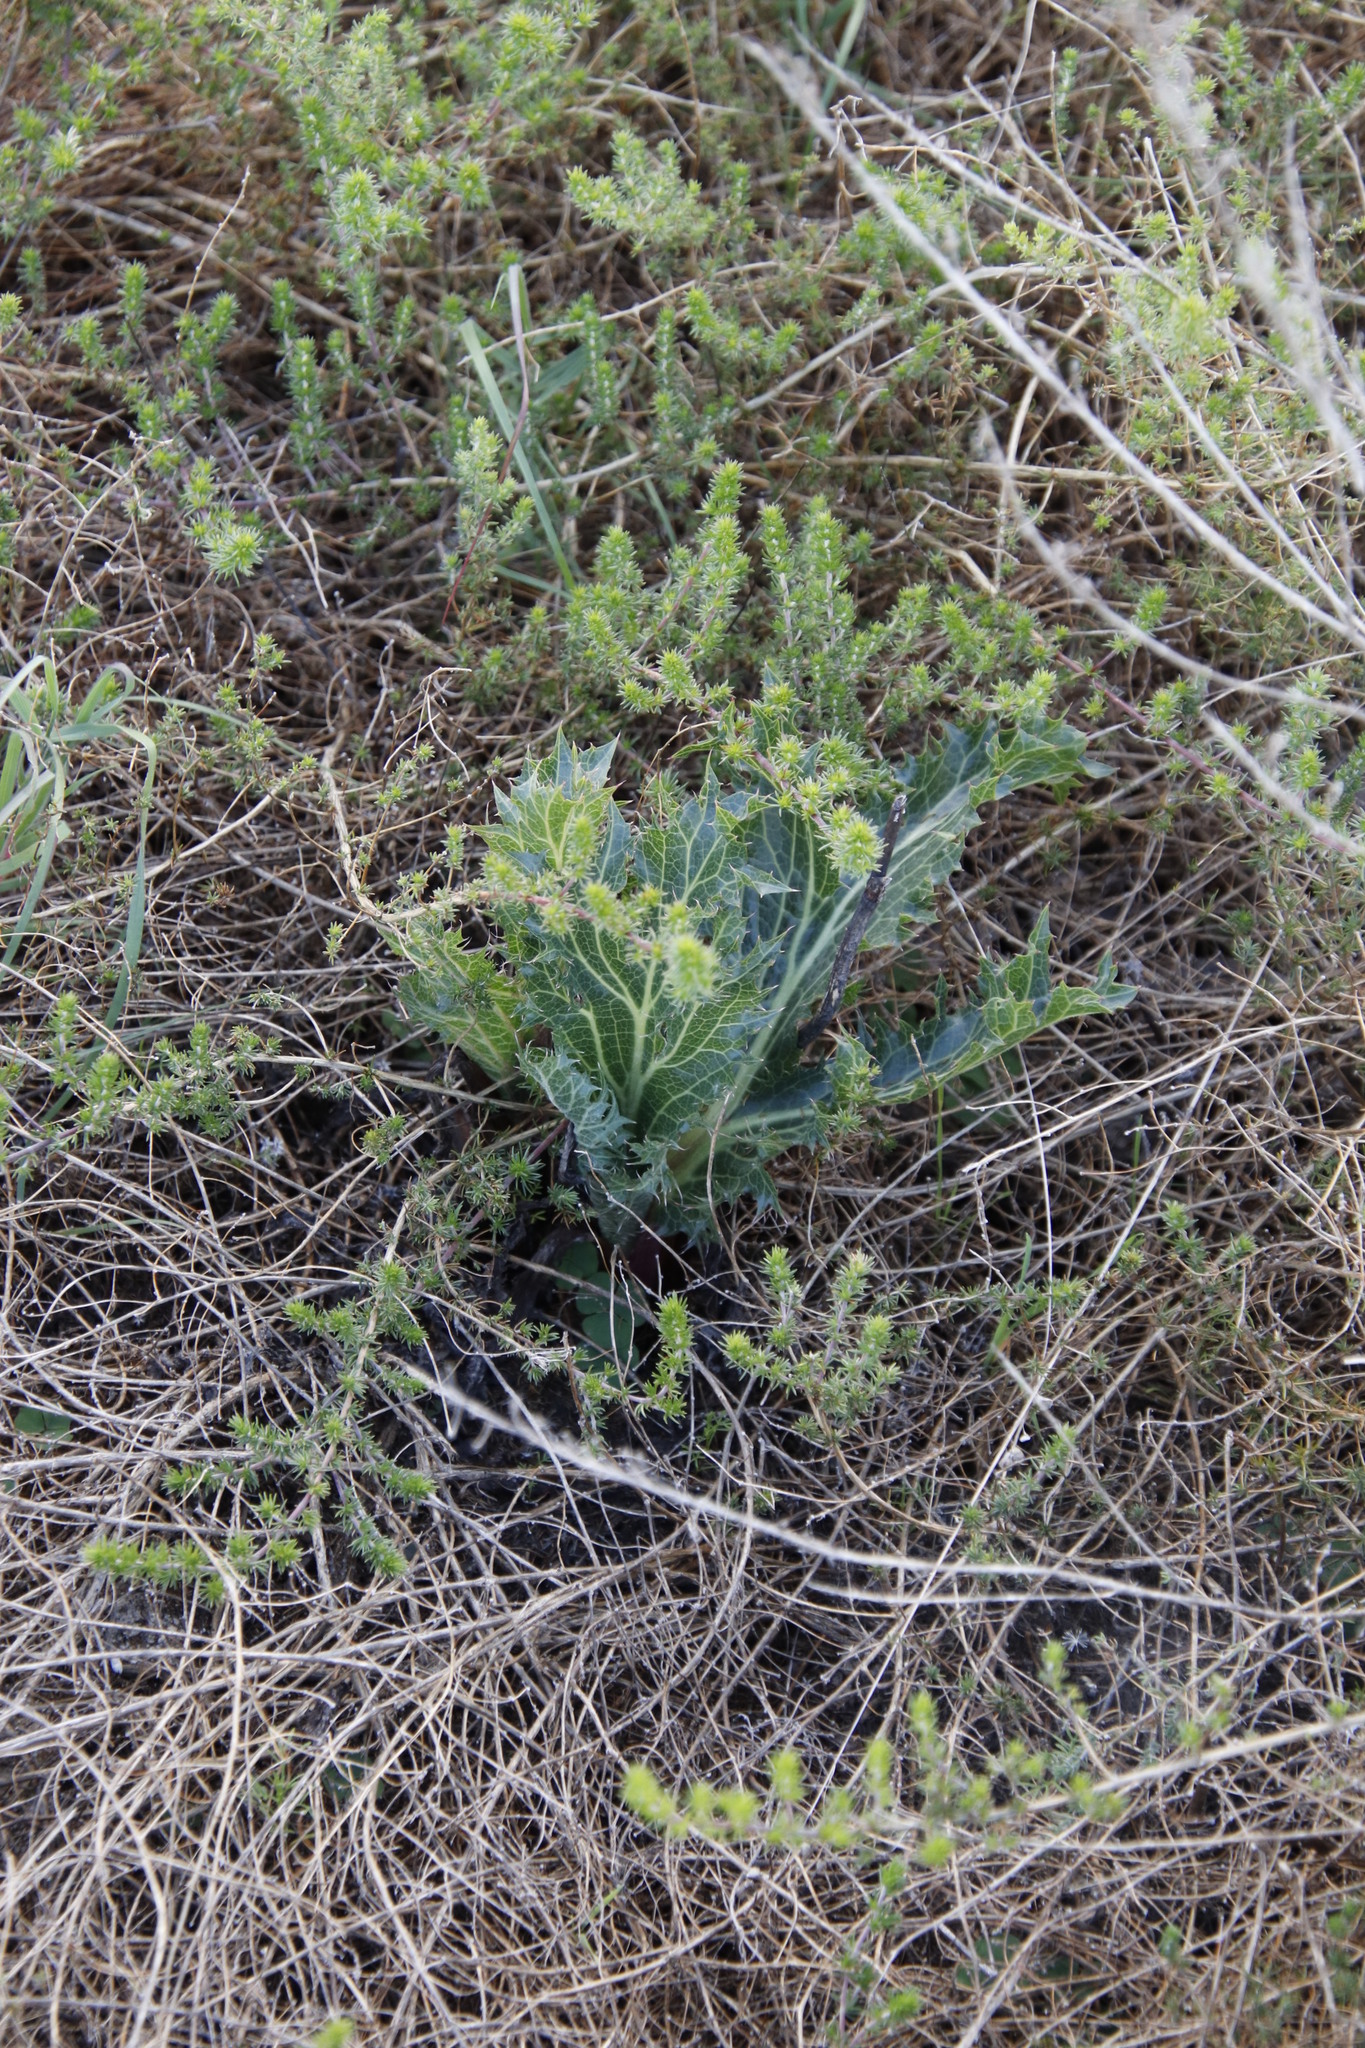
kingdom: Plantae
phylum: Tracheophyta
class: Magnoliopsida
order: Apiales
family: Apiaceae
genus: Lichtensteinia
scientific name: Lichtensteinia lacera
